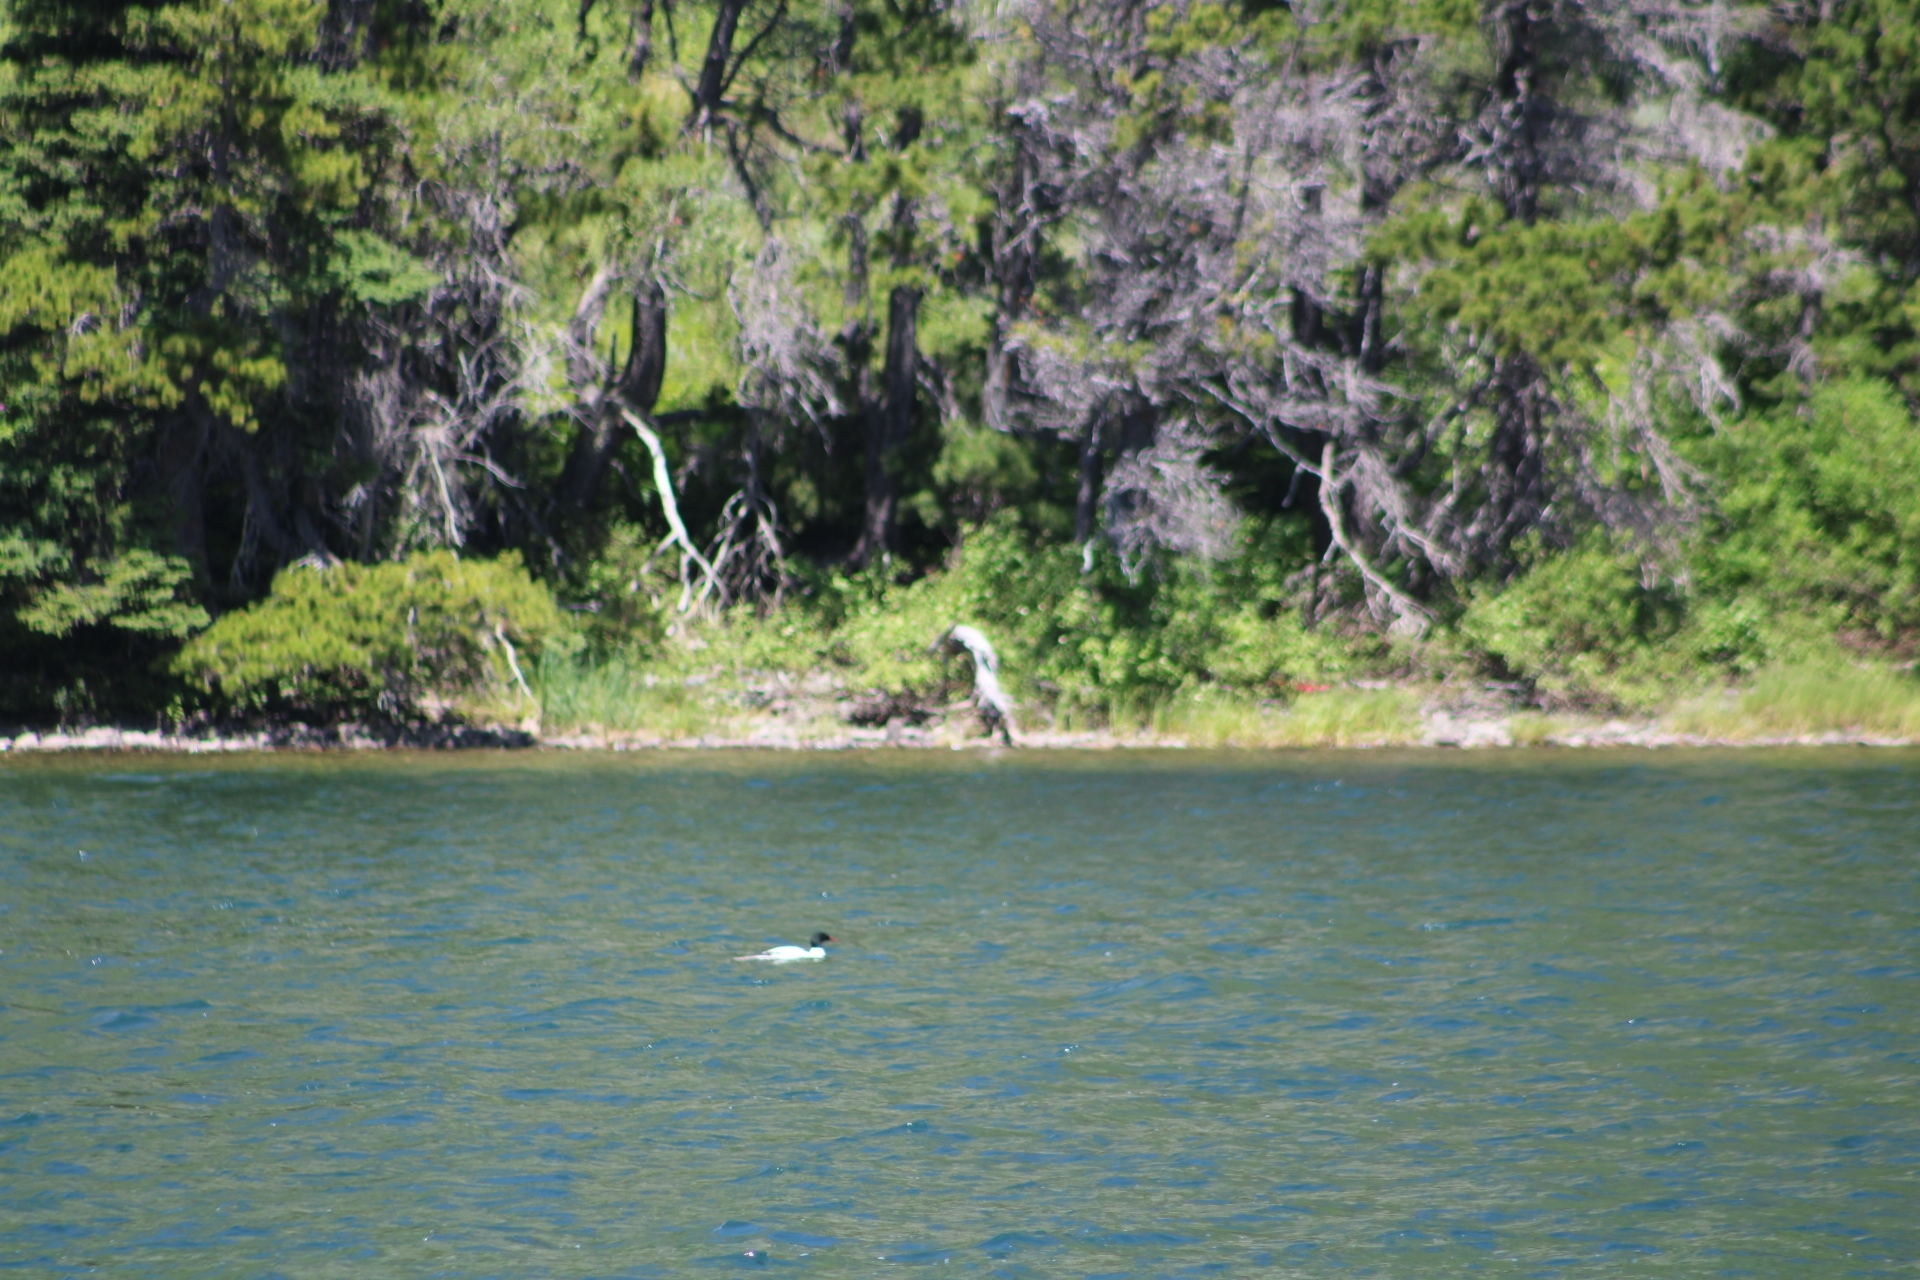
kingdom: Animalia
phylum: Chordata
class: Aves
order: Anseriformes
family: Anatidae
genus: Mergus
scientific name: Mergus merganser
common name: Common merganser
